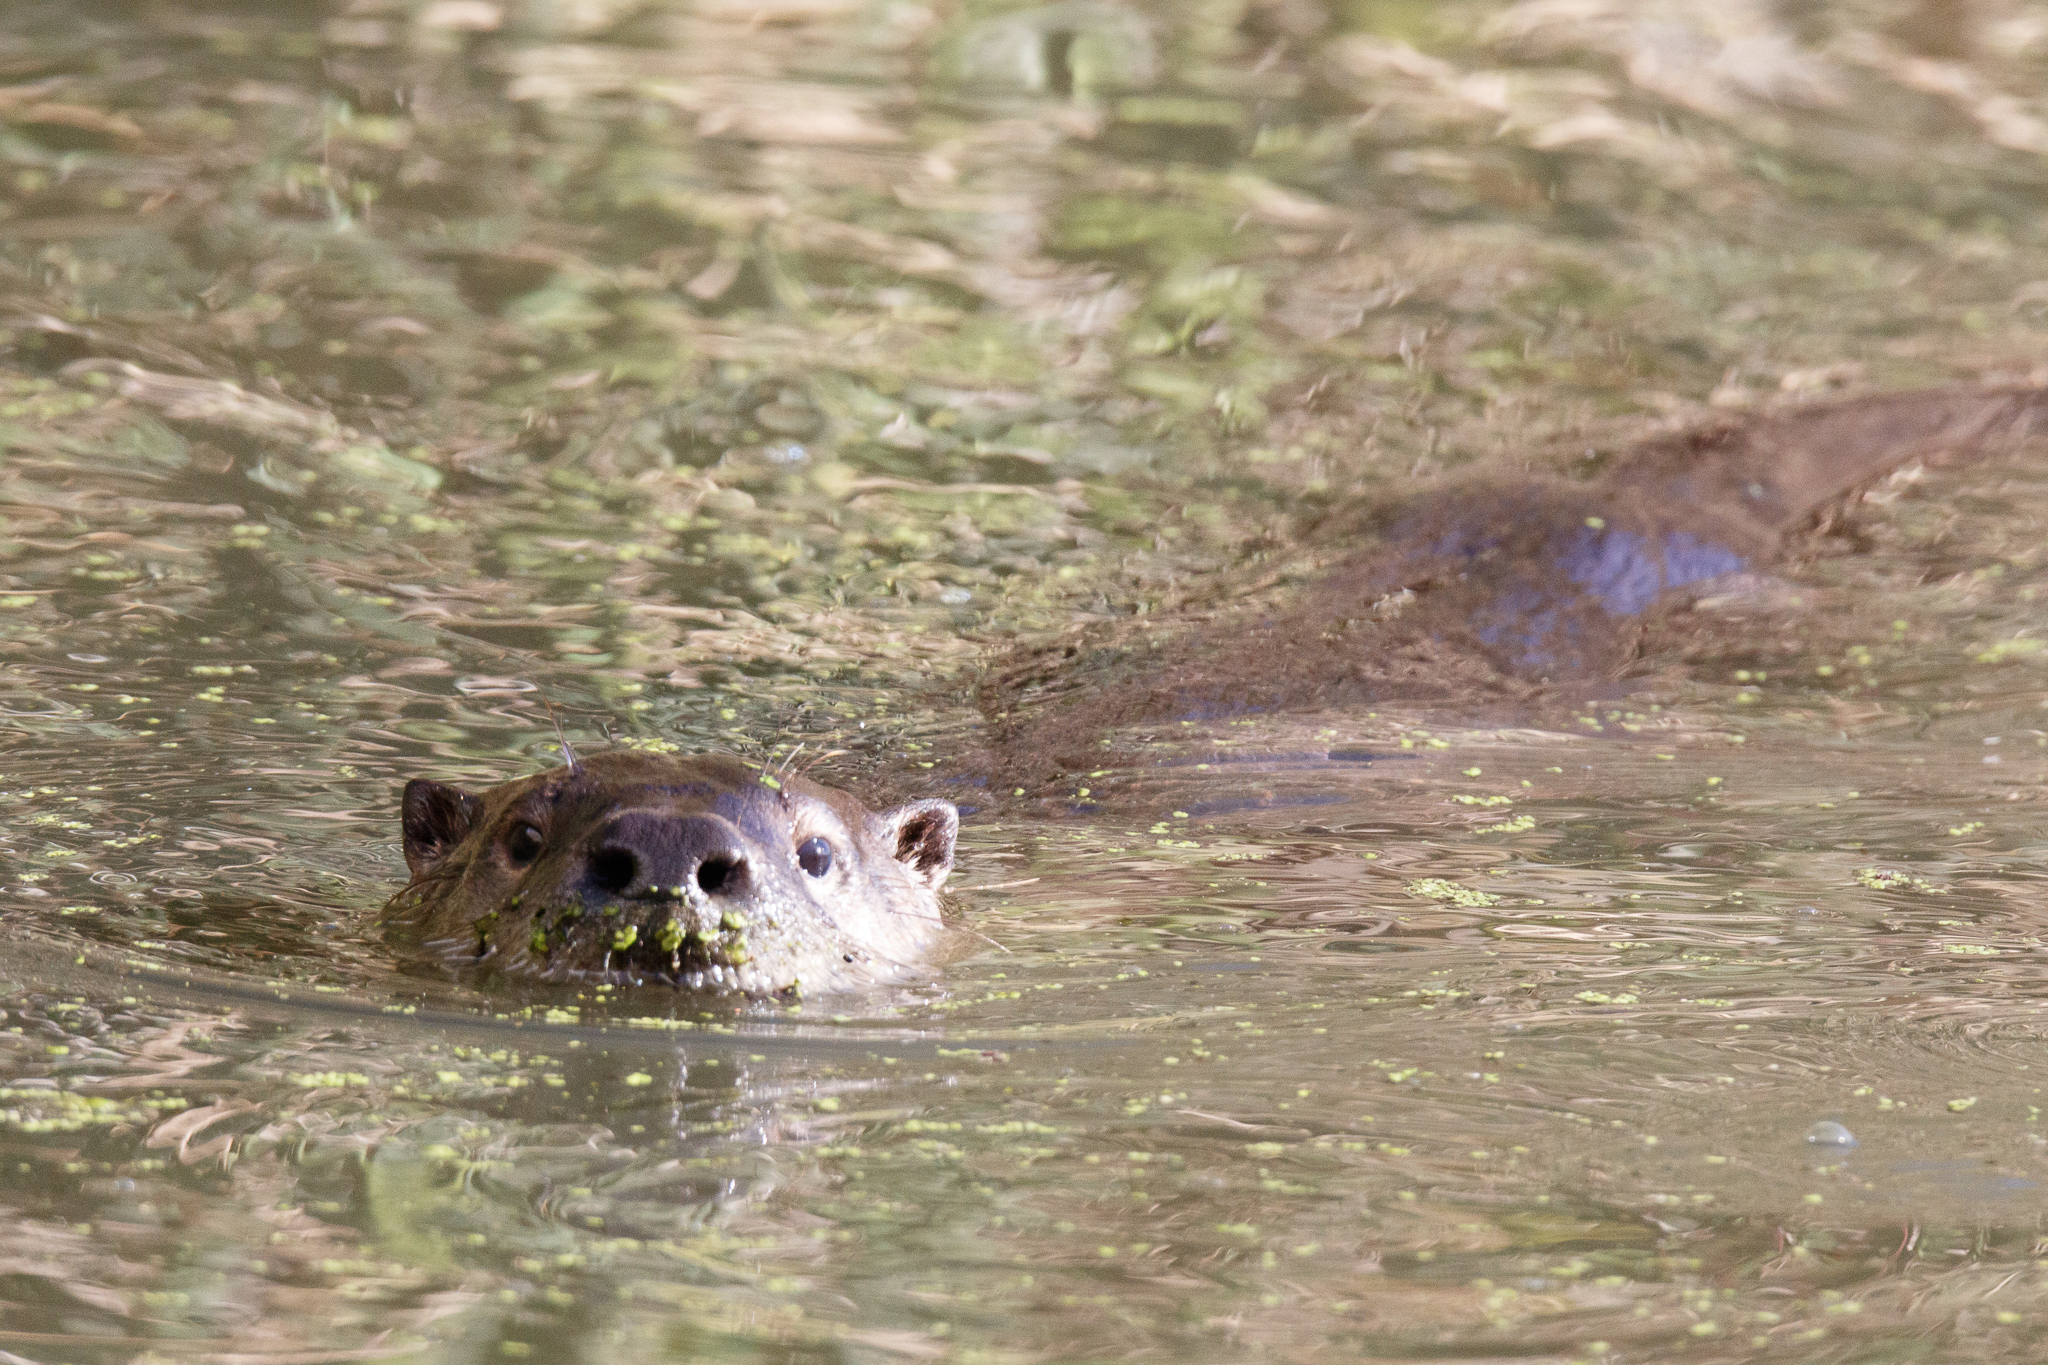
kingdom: Animalia
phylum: Chordata
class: Mammalia
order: Carnivora
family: Mustelidae
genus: Lontra
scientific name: Lontra canadensis
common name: North american river otter
